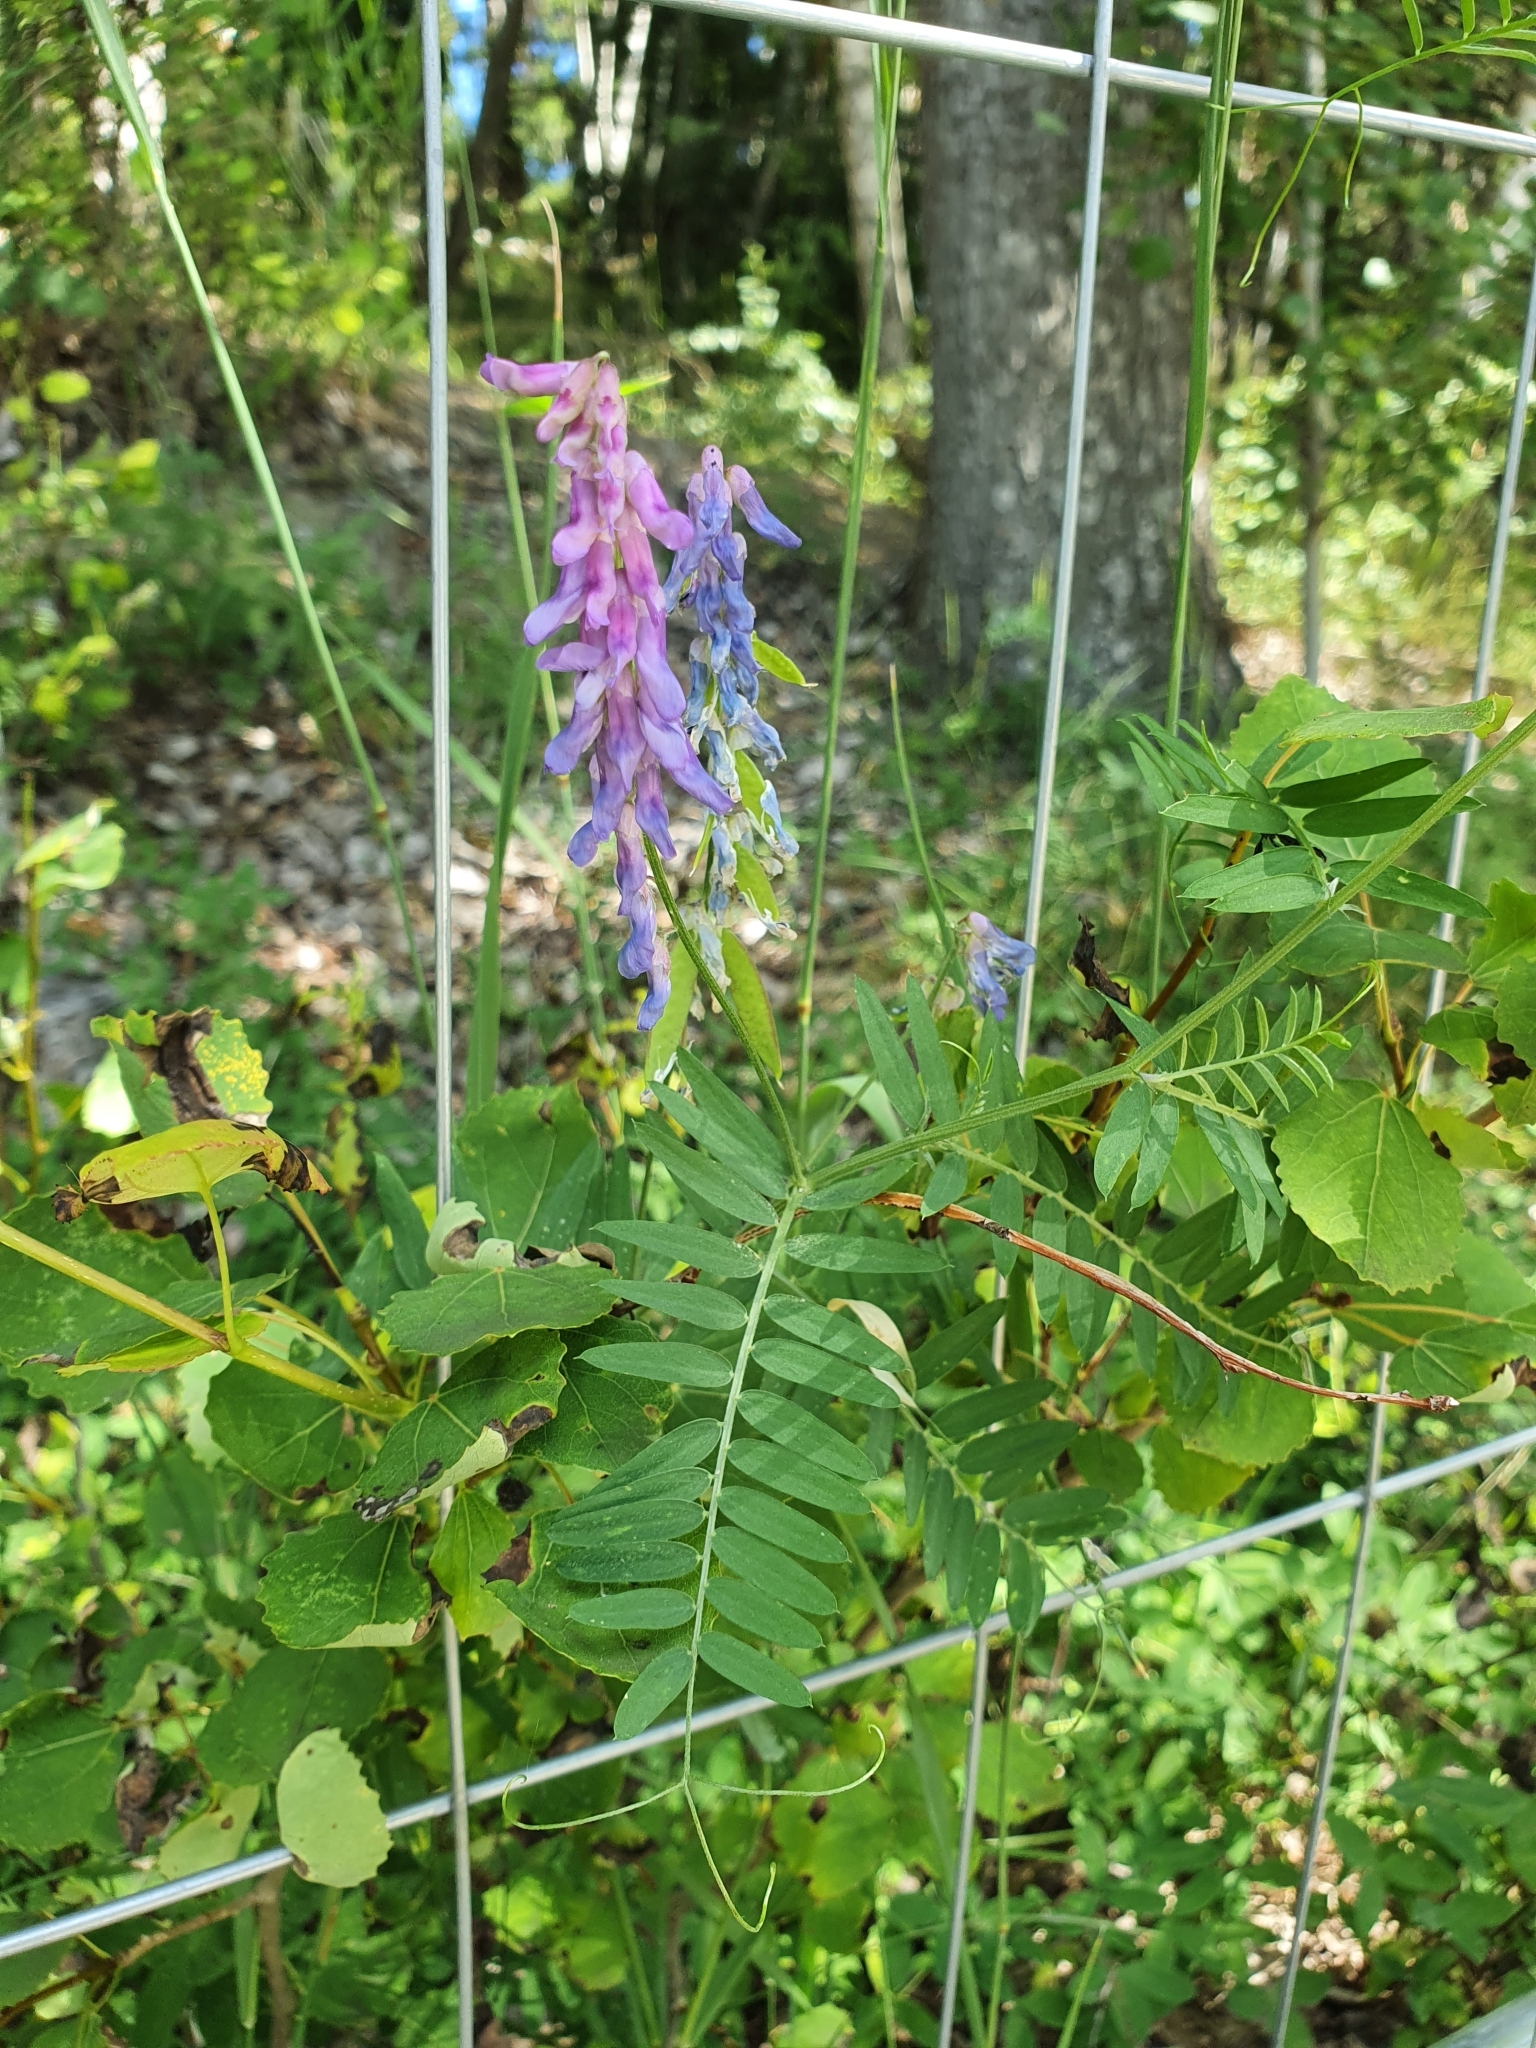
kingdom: Plantae
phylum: Tracheophyta
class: Magnoliopsida
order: Fabales
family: Fabaceae
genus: Vicia
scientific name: Vicia cracca
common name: Bird vetch
